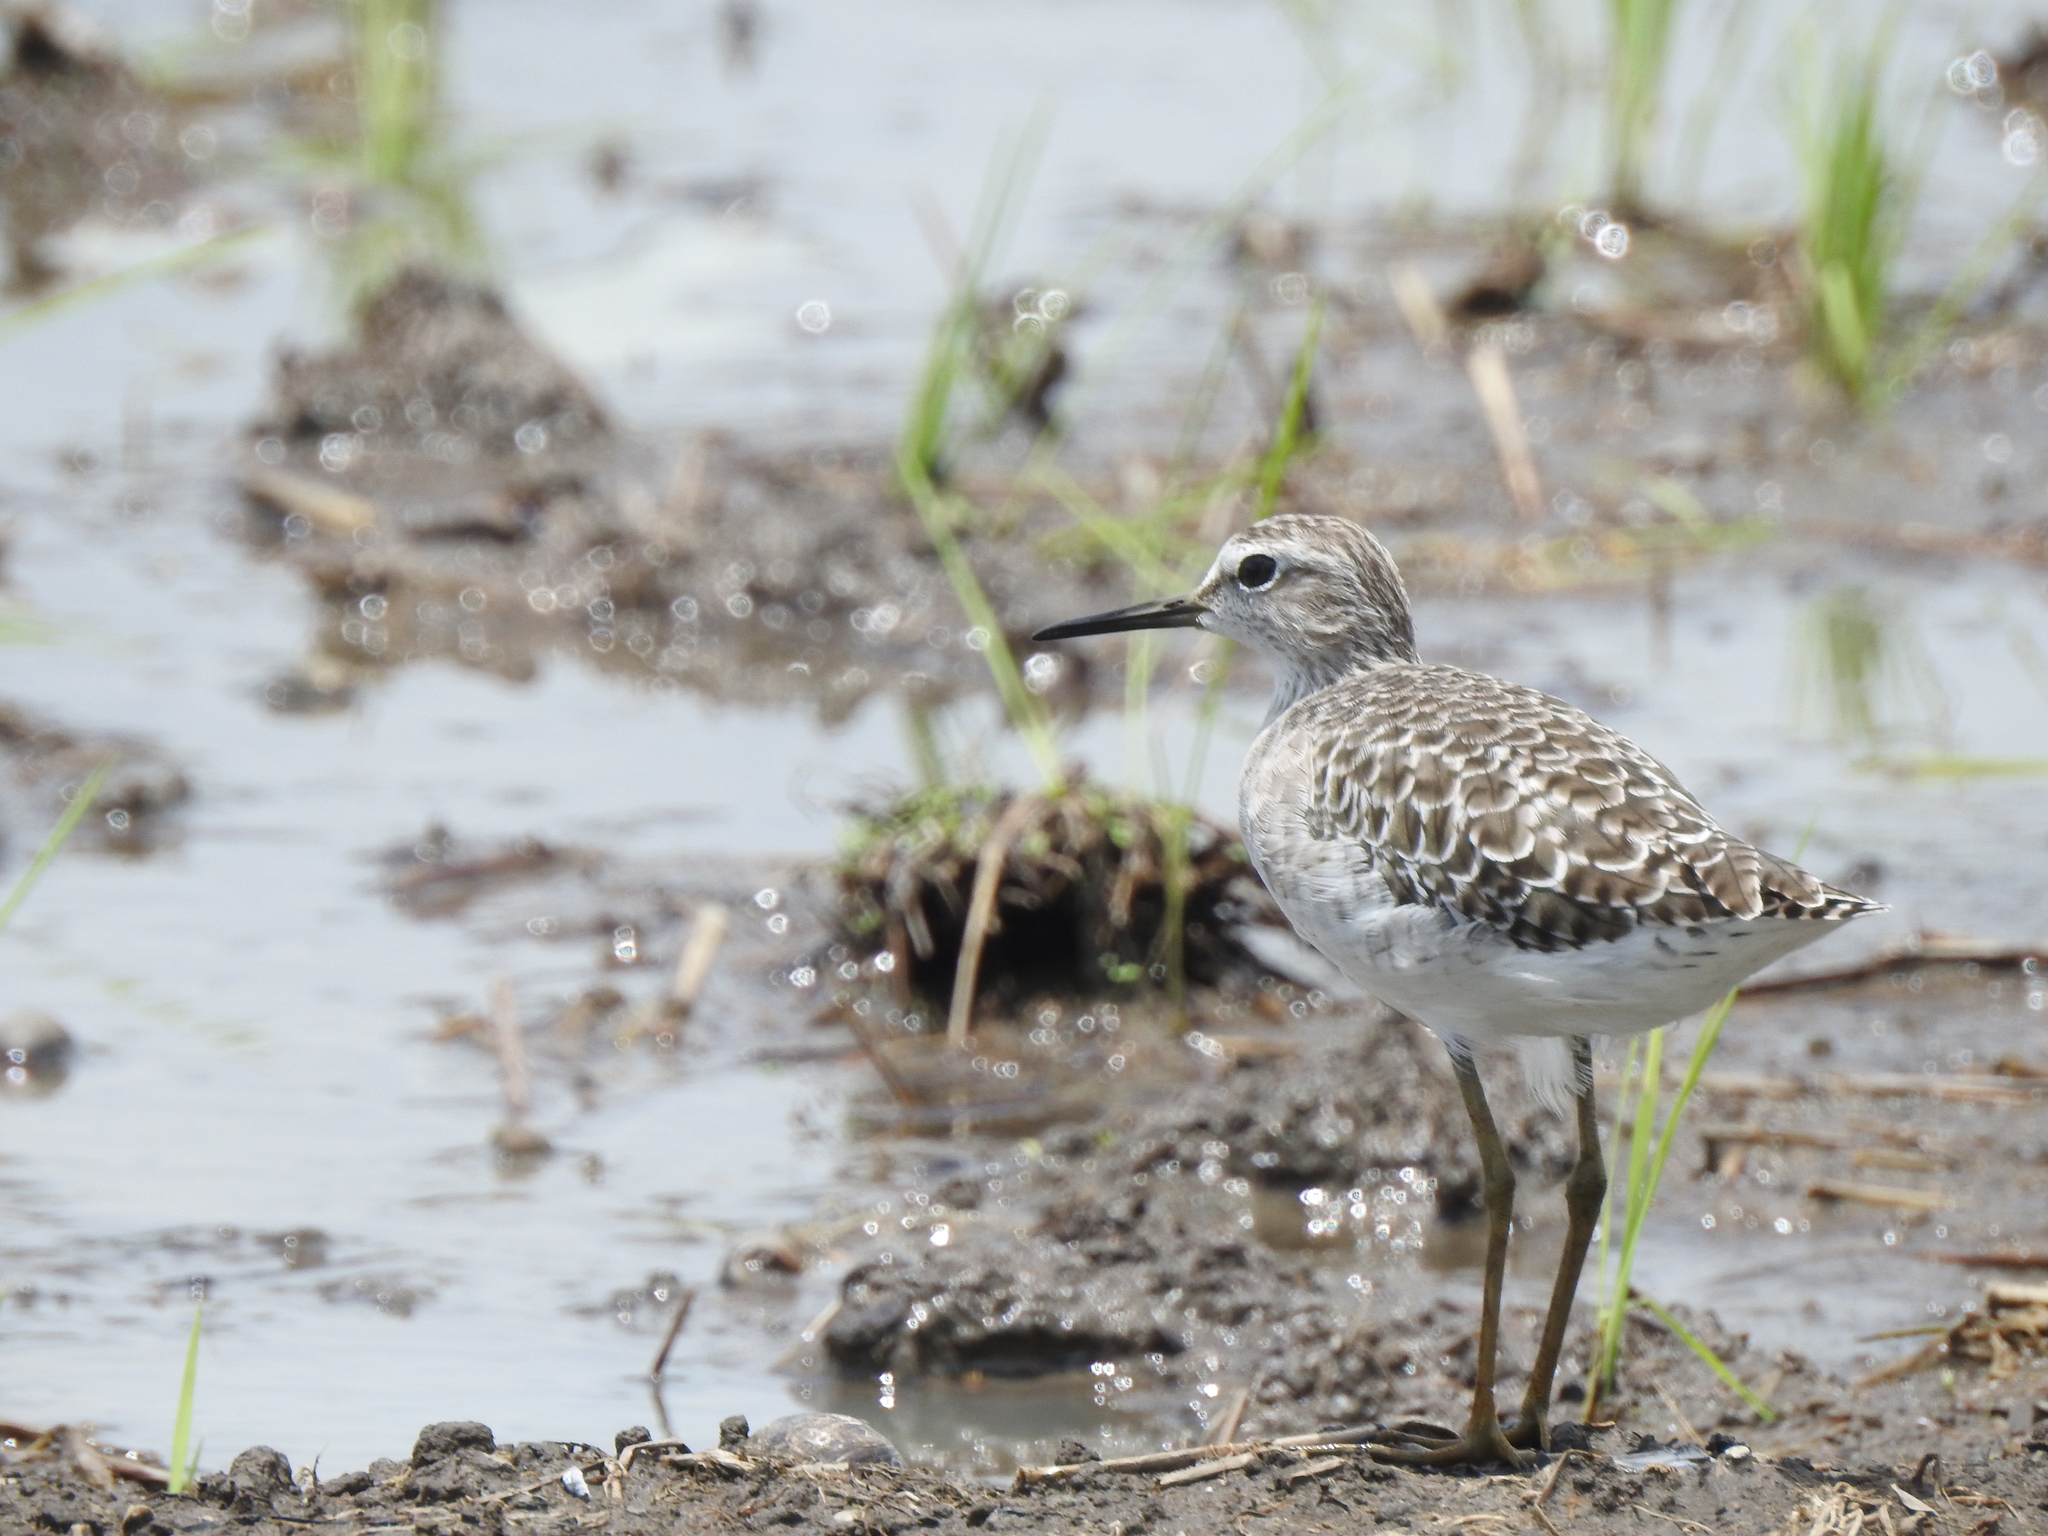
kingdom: Animalia
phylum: Chordata
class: Aves
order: Charadriiformes
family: Scolopacidae
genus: Tringa
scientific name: Tringa glareola
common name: Wood sandpiper
